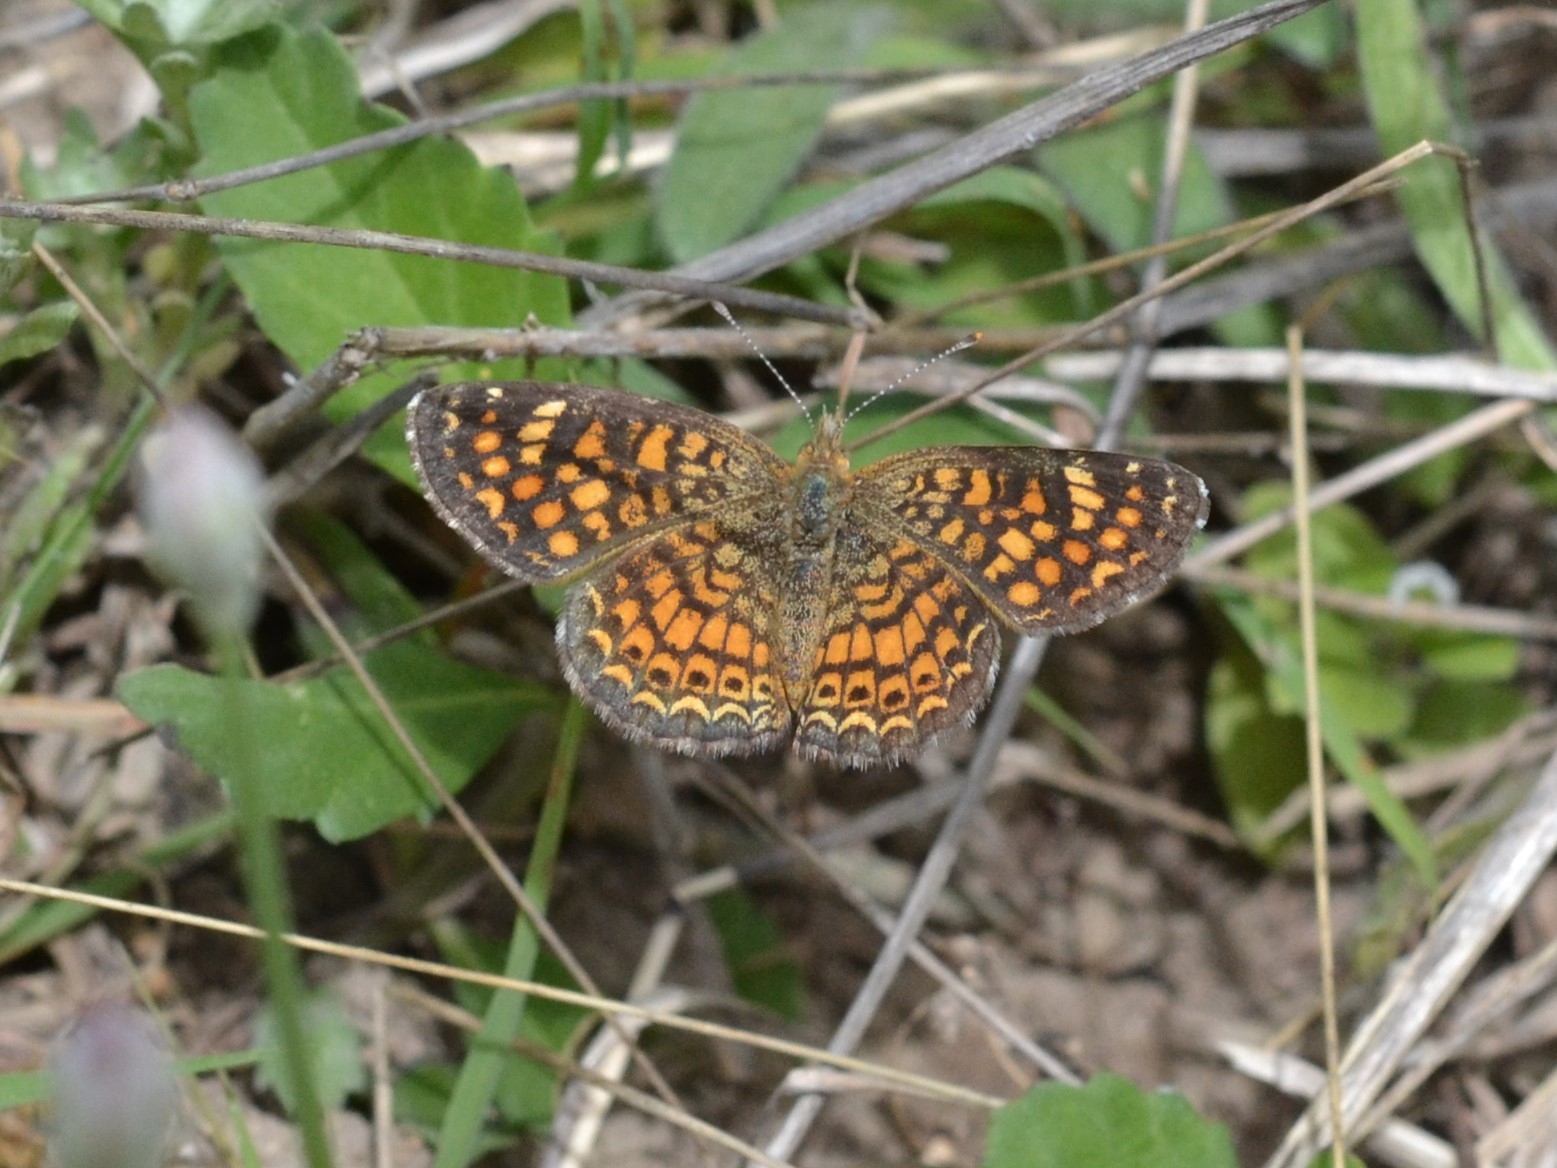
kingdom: Animalia
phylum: Arthropoda
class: Insecta
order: Lepidoptera
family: Nymphalidae
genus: Phyciodes
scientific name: Phyciodes vesta
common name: Vesta crescent
